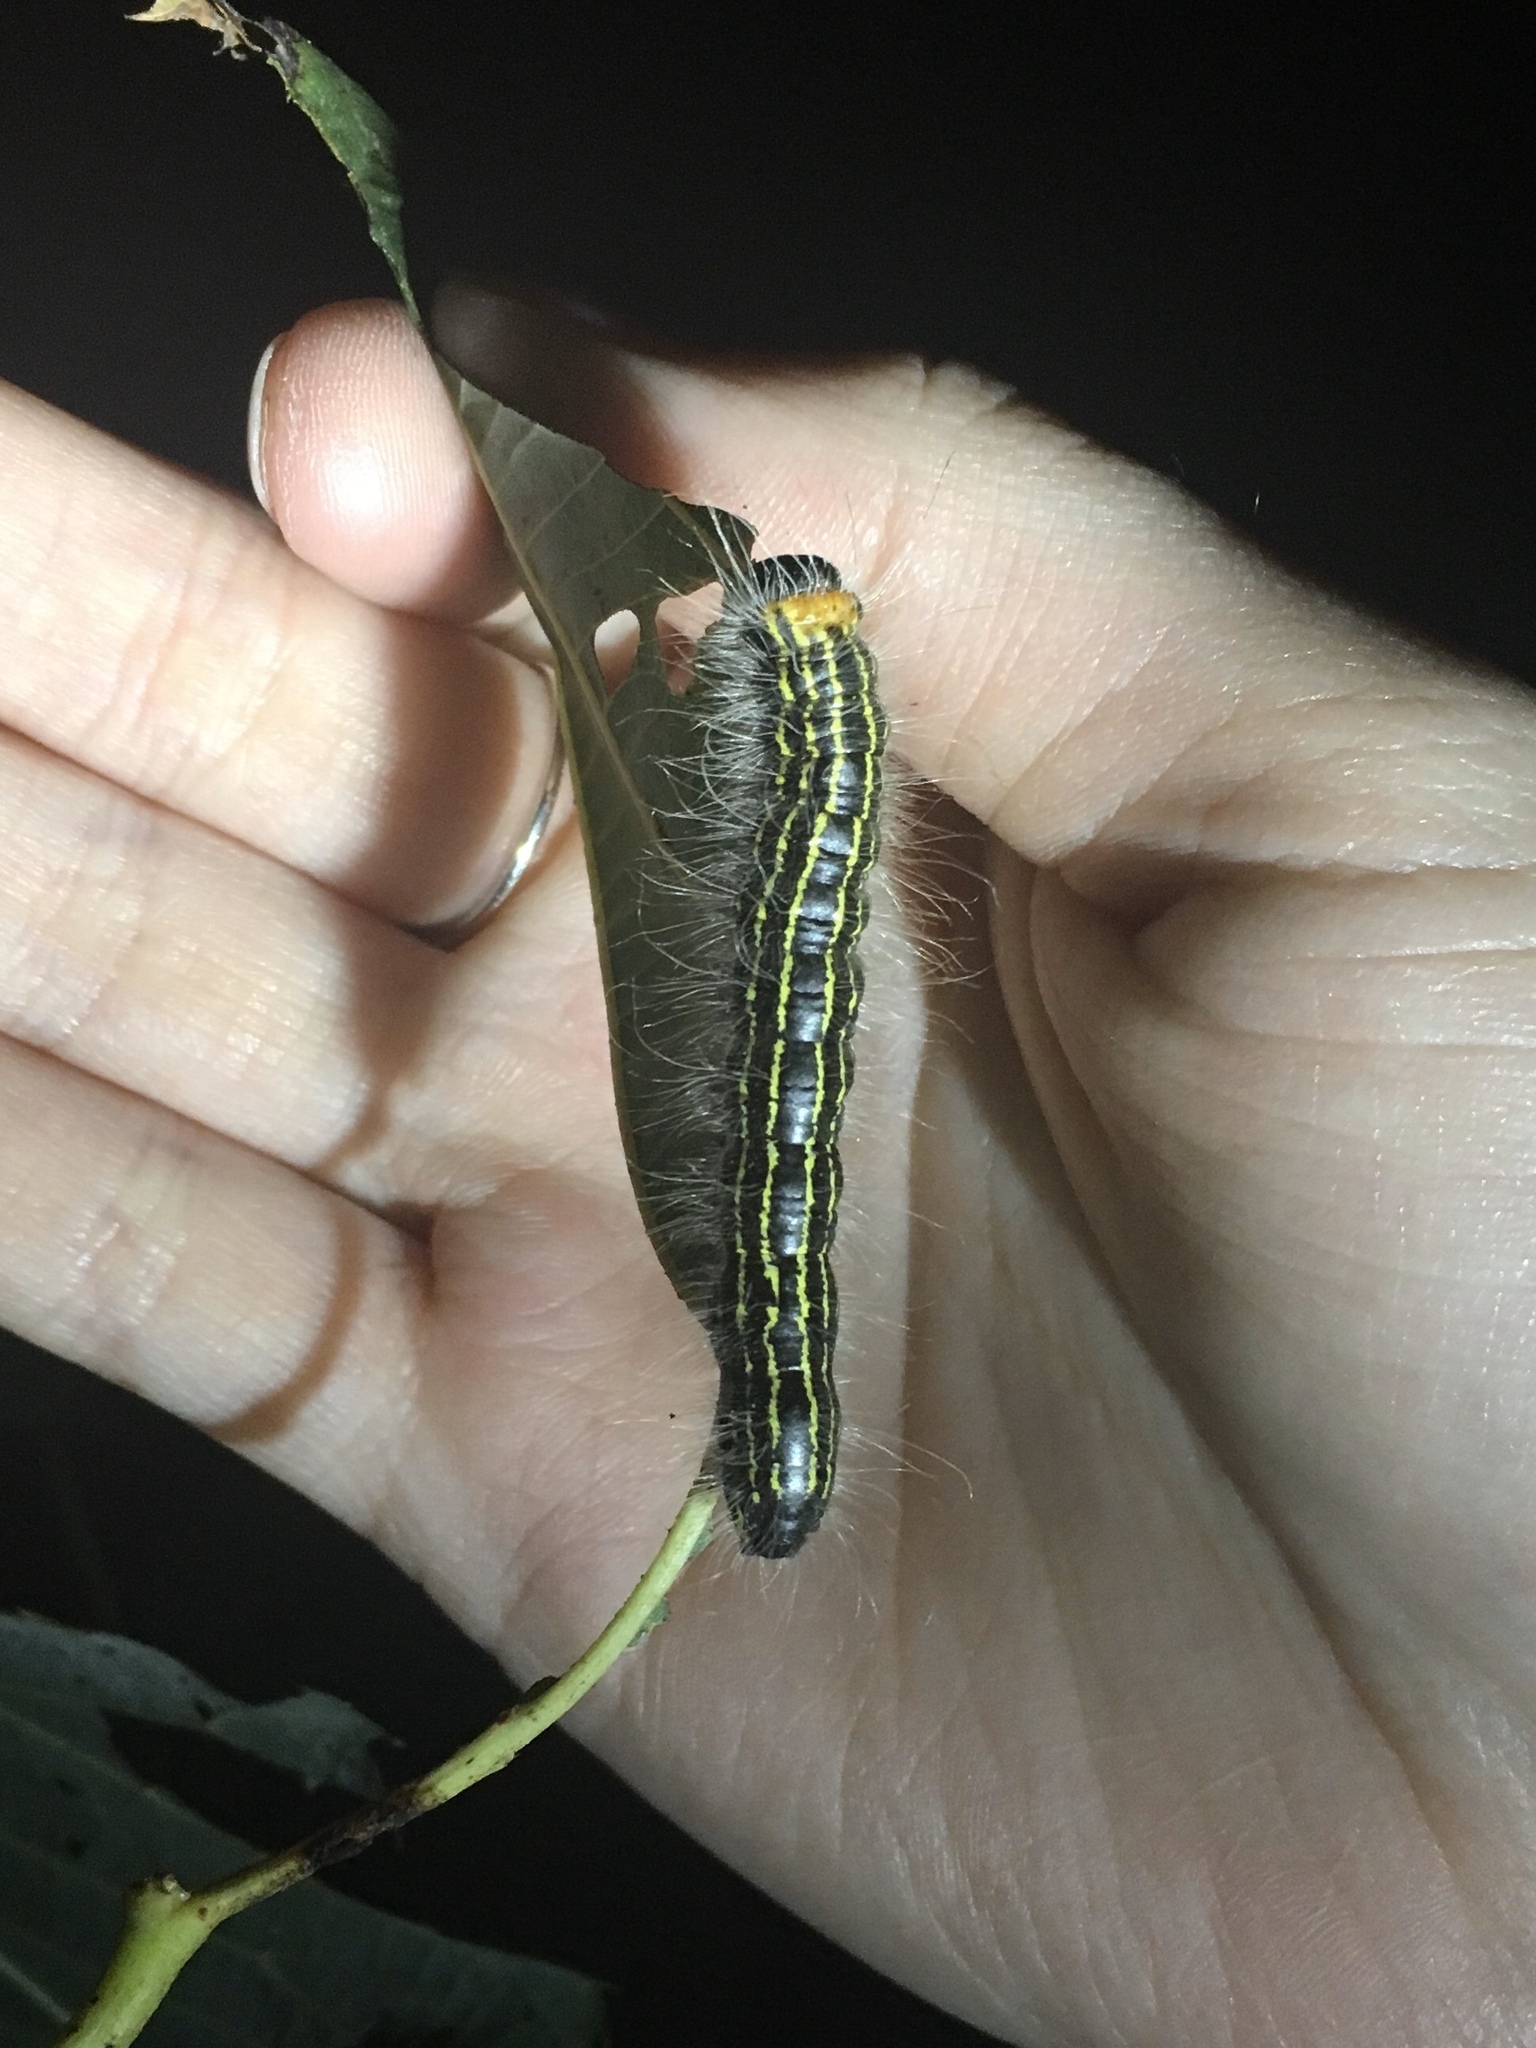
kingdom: Animalia
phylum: Arthropoda
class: Insecta
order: Lepidoptera
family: Notodontidae
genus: Datana
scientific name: Datana ministra
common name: Yellow-necked caterpillar moth
